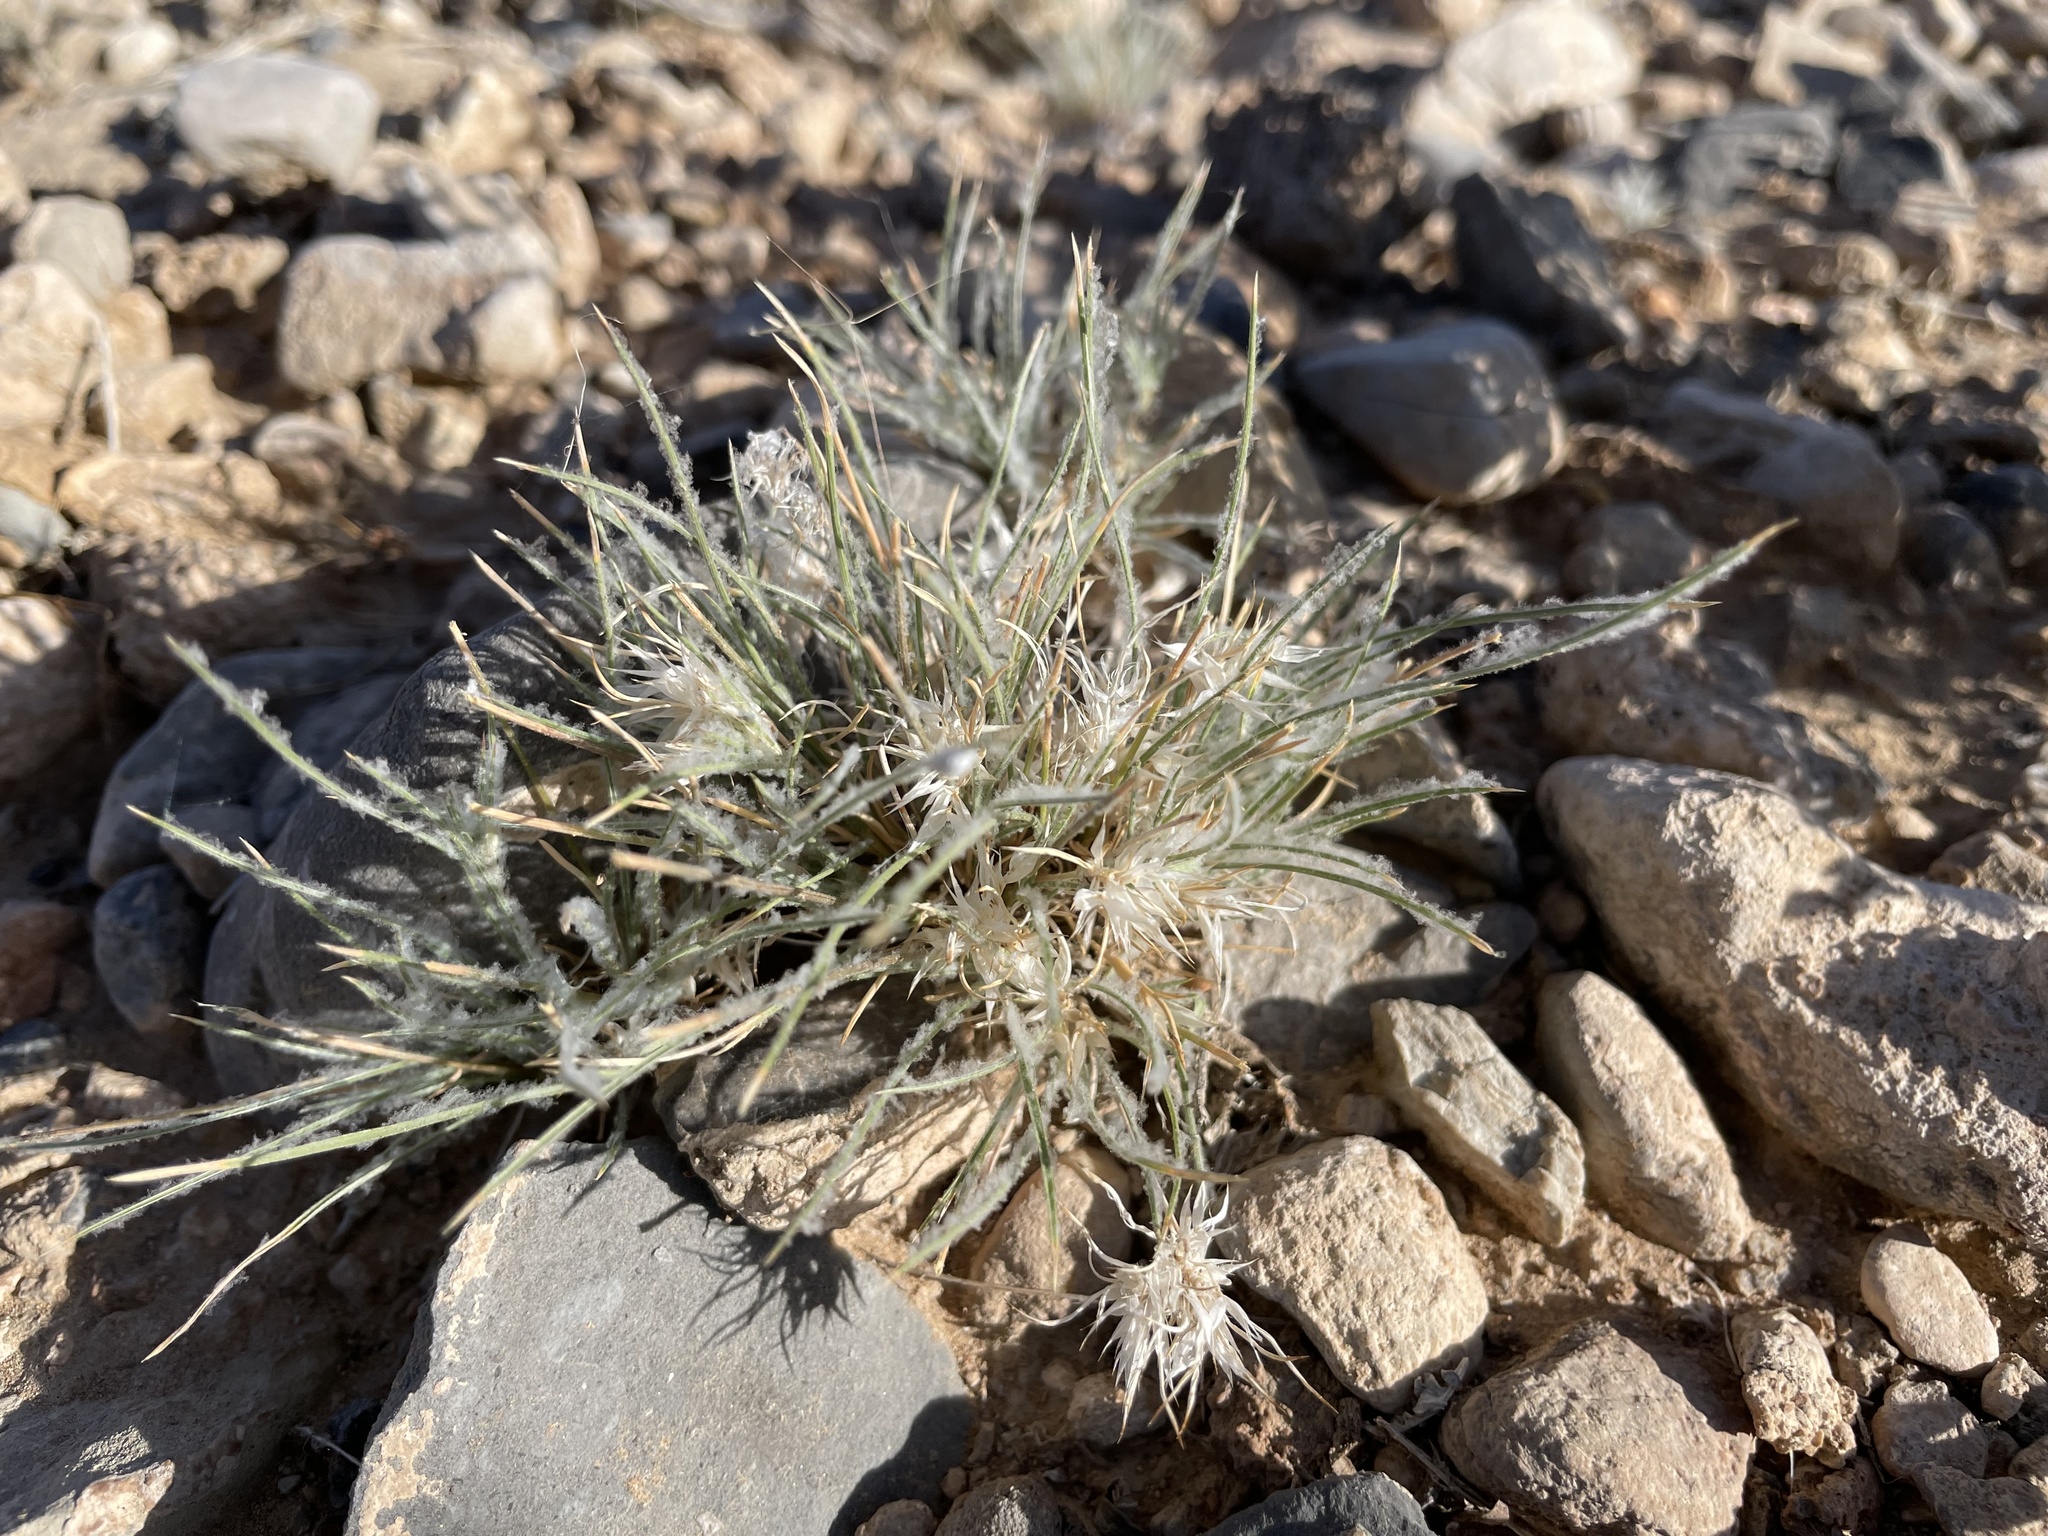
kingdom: Plantae
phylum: Tracheophyta
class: Liliopsida
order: Poales
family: Poaceae
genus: Dasyochloa
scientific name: Dasyochloa pulchella
